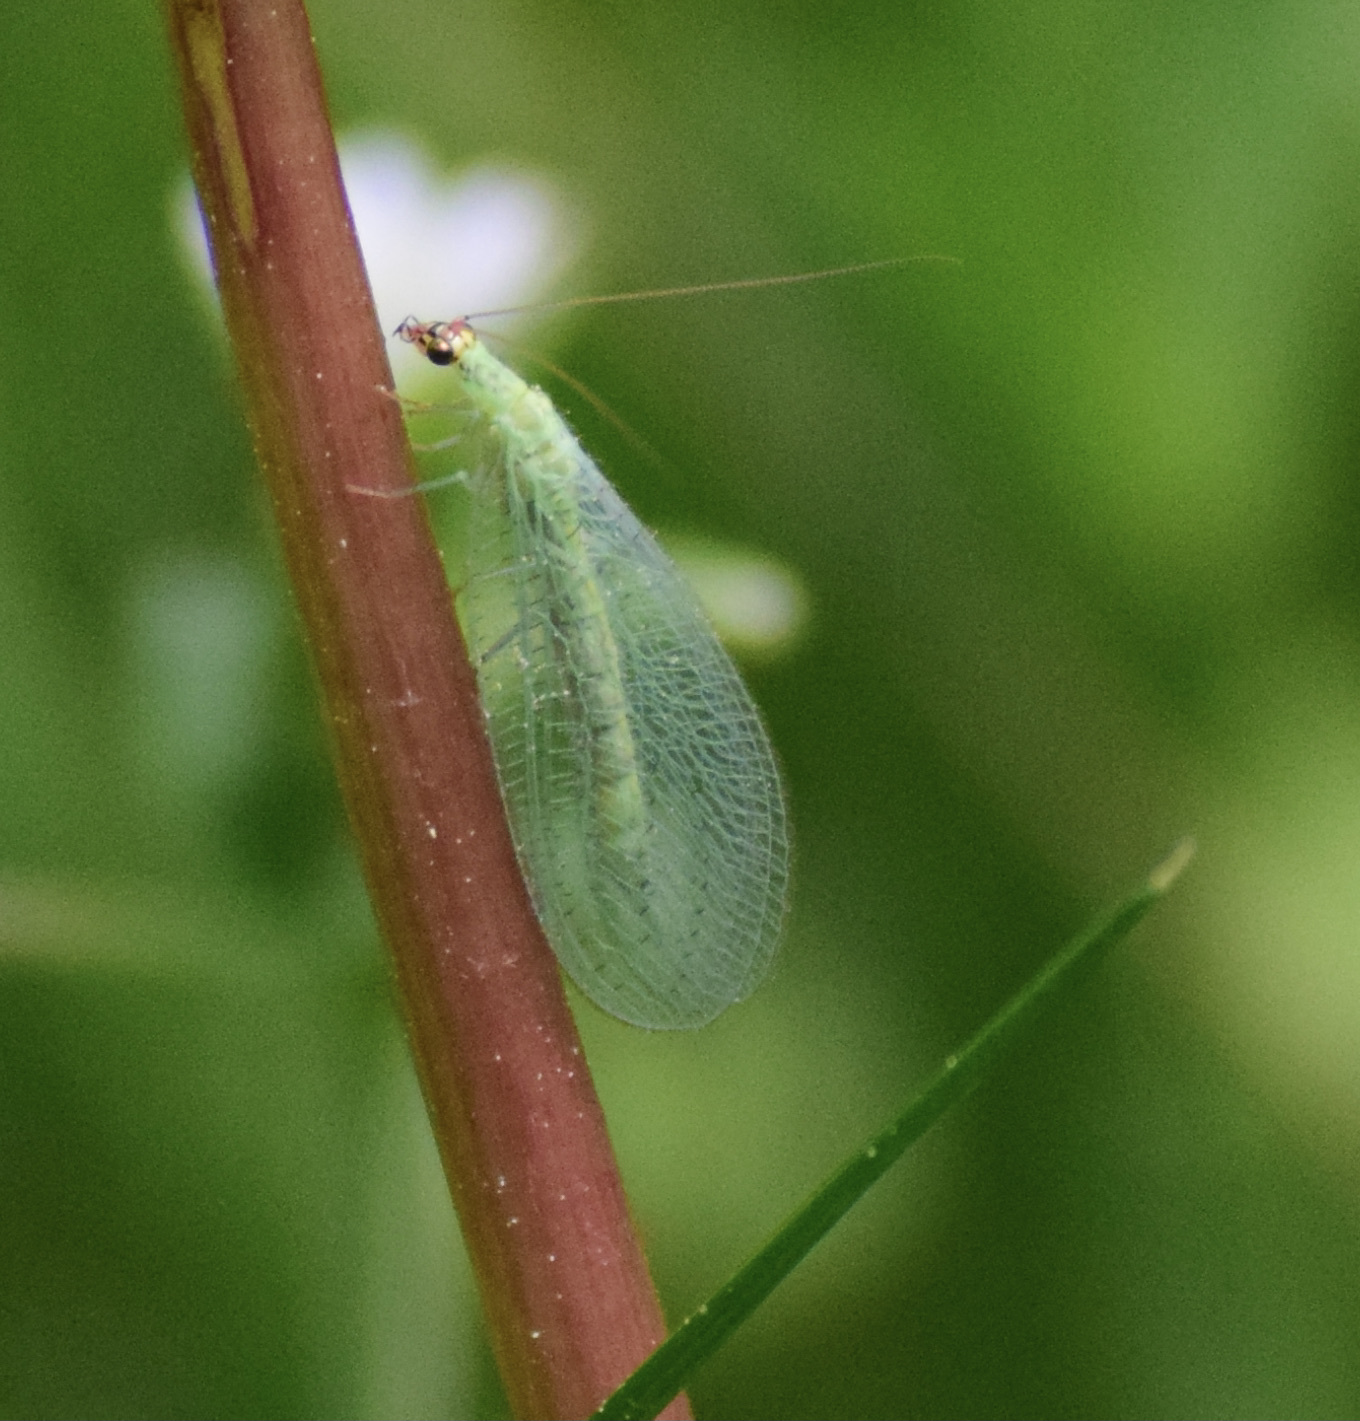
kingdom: Animalia
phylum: Arthropoda
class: Insecta
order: Neuroptera
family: Chrysopidae
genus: Chrysopa
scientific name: Chrysopa oculata
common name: Golden-eyed lacewing
